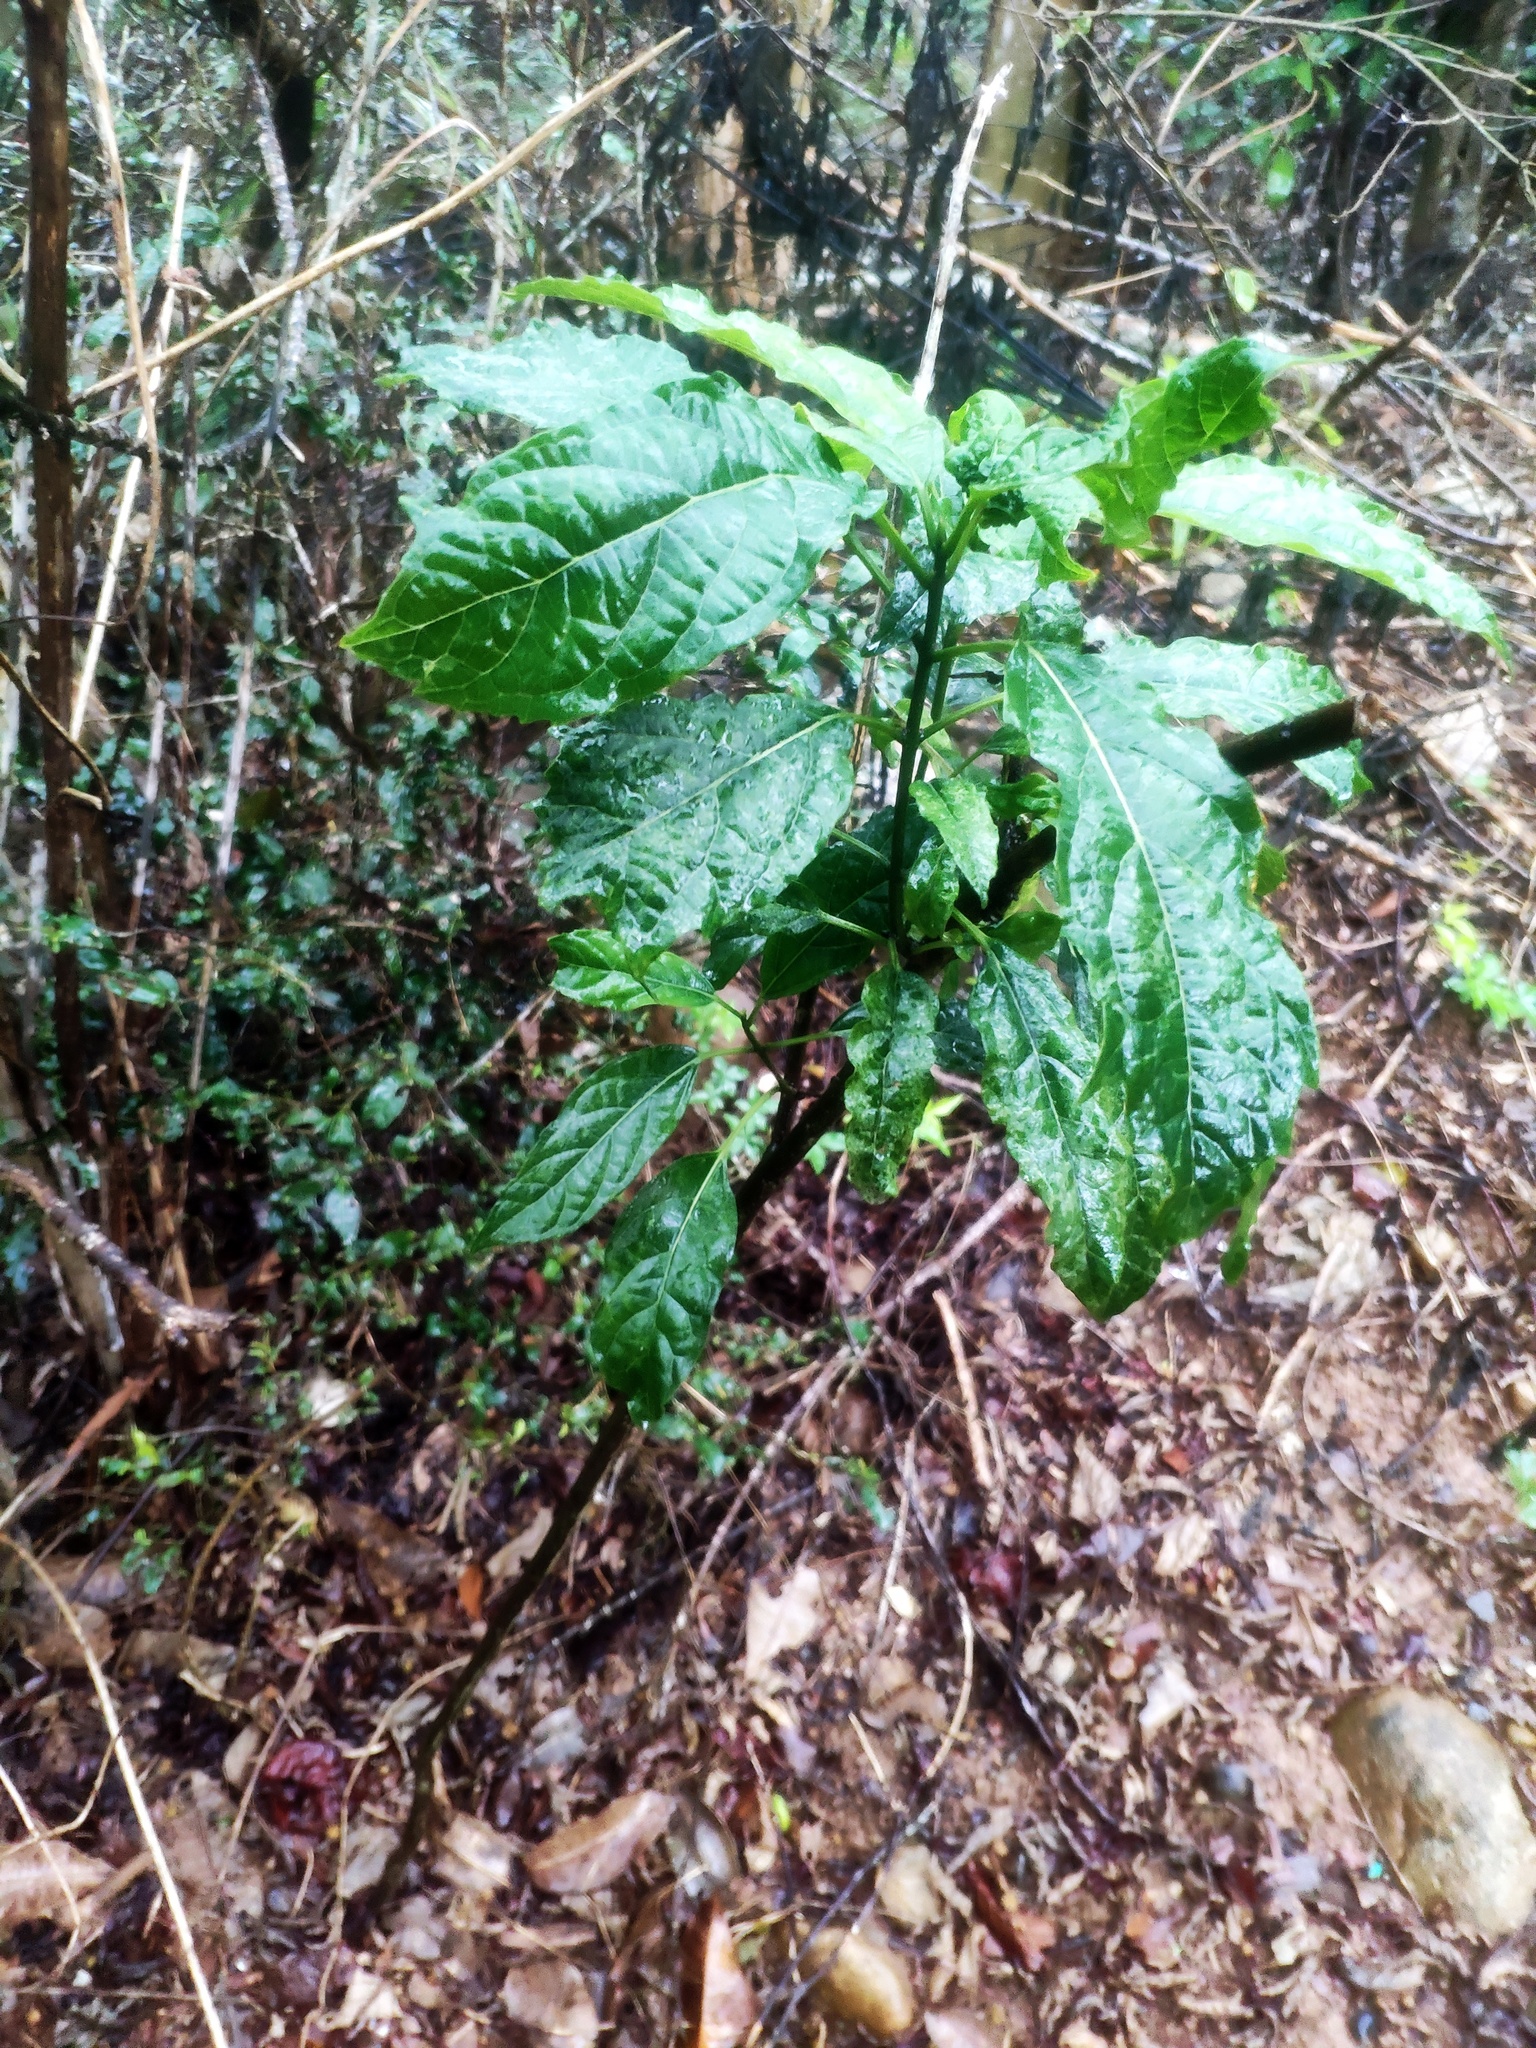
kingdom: Plantae
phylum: Tracheophyta
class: Magnoliopsida
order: Lamiales
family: Lamiaceae
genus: Clerodendrum
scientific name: Clerodendrum cyrtophyllum
